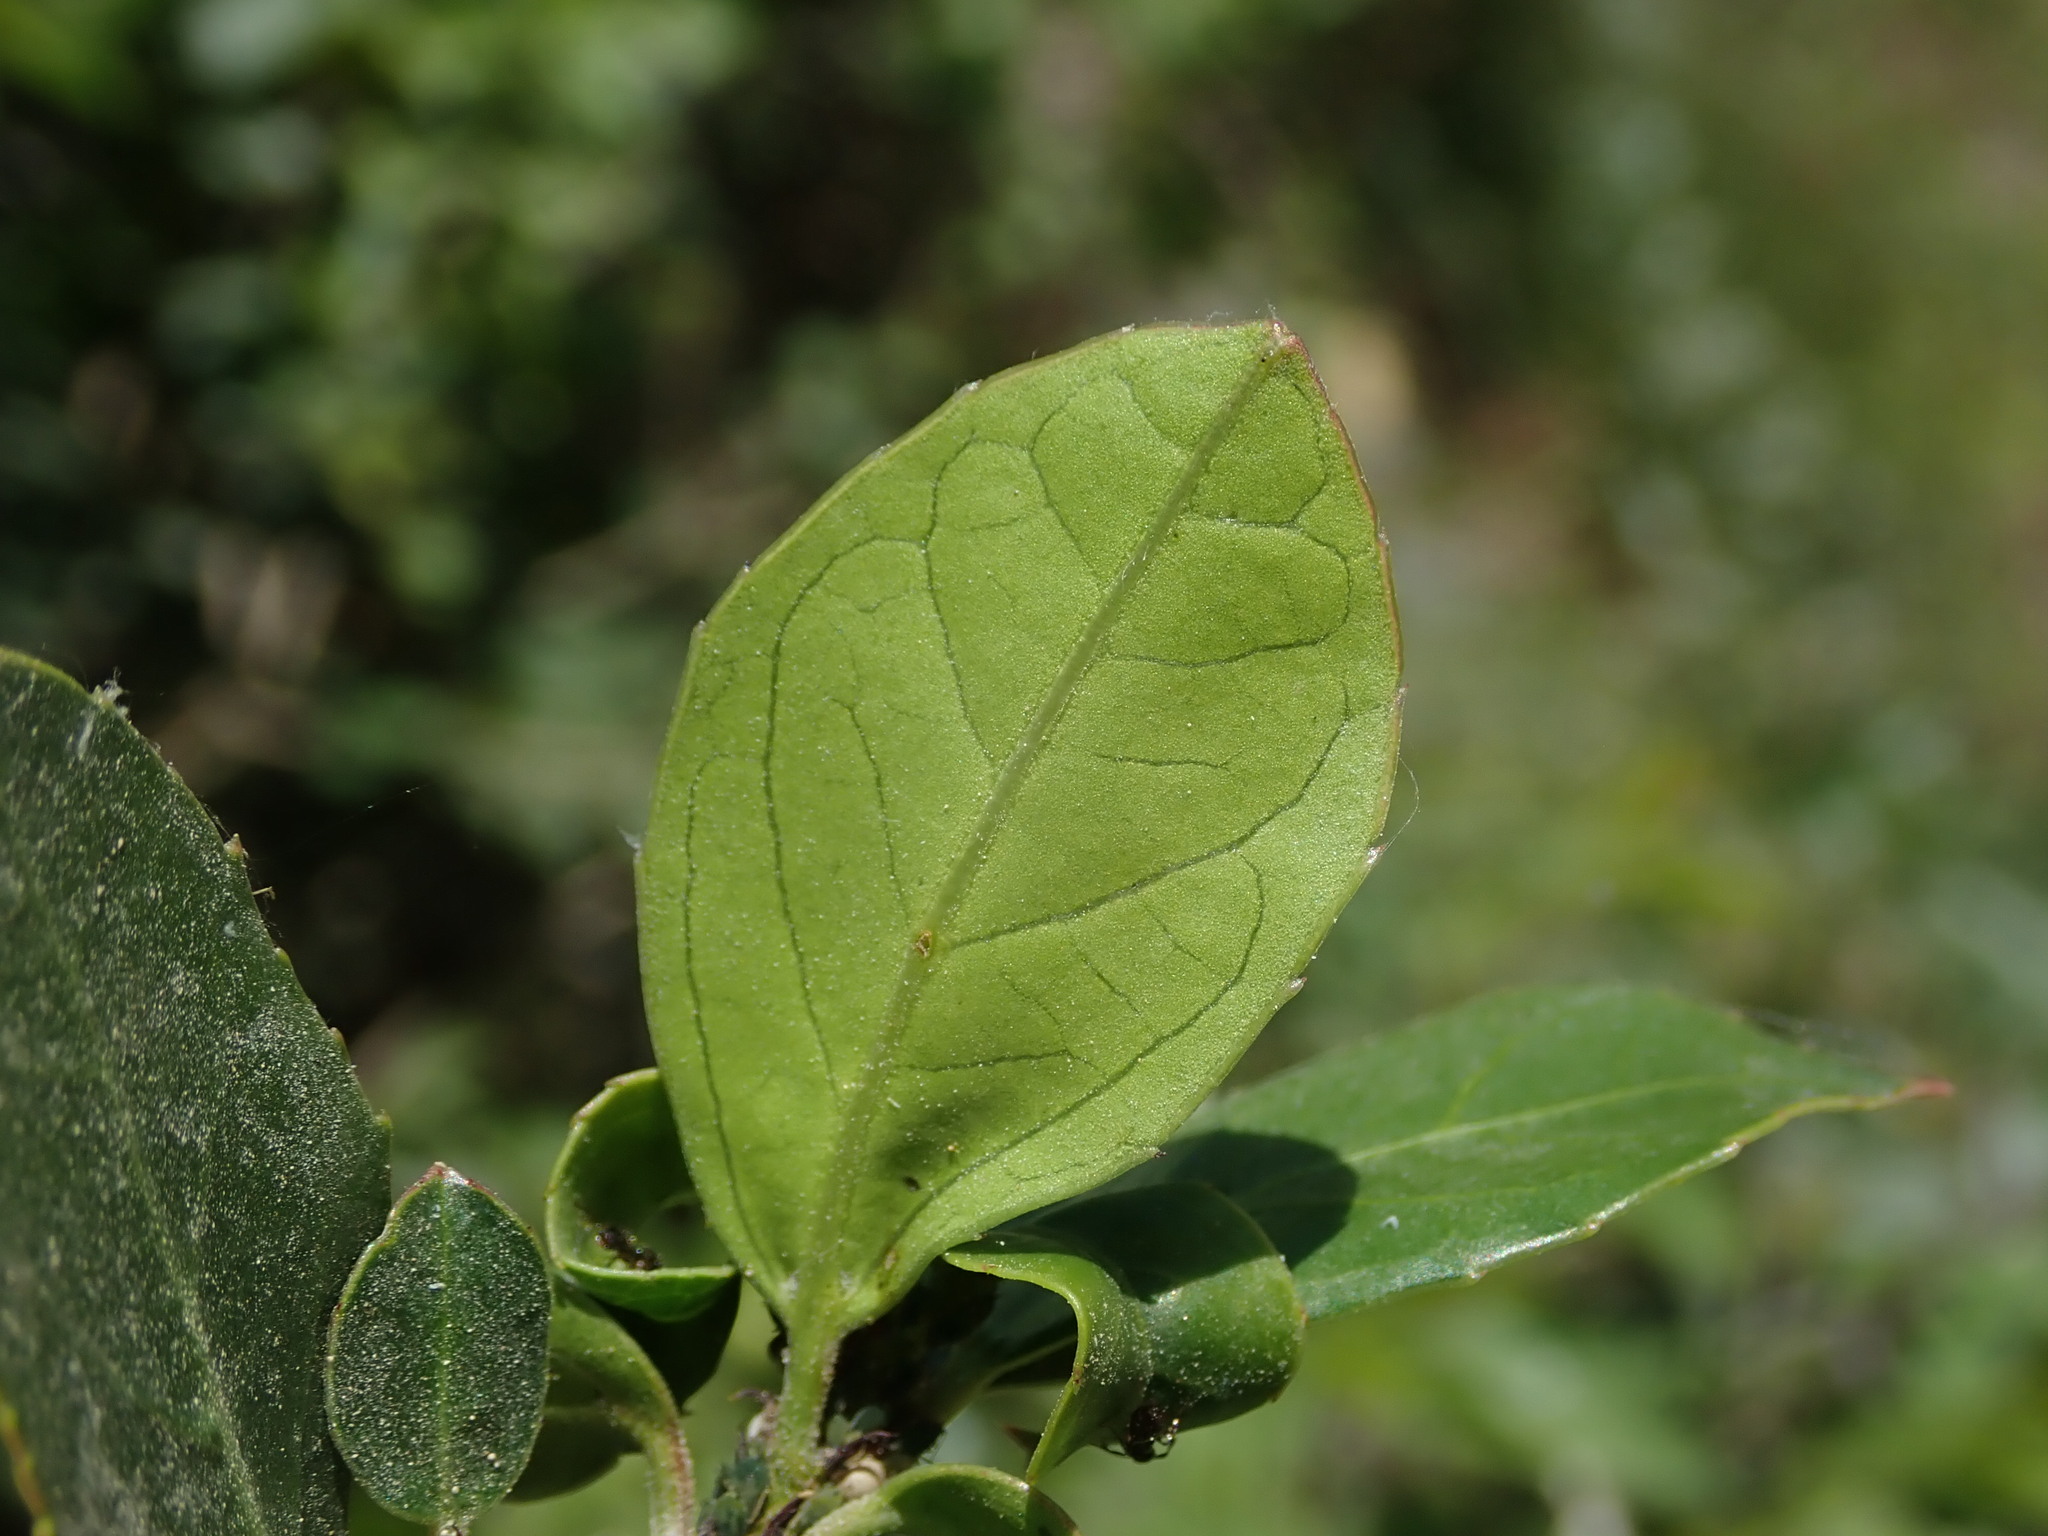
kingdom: Plantae
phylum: Tracheophyta
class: Magnoliopsida
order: Rosales
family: Rhamnaceae
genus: Rhamnus
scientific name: Rhamnus alaternus
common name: Mediterranean buckthorn
